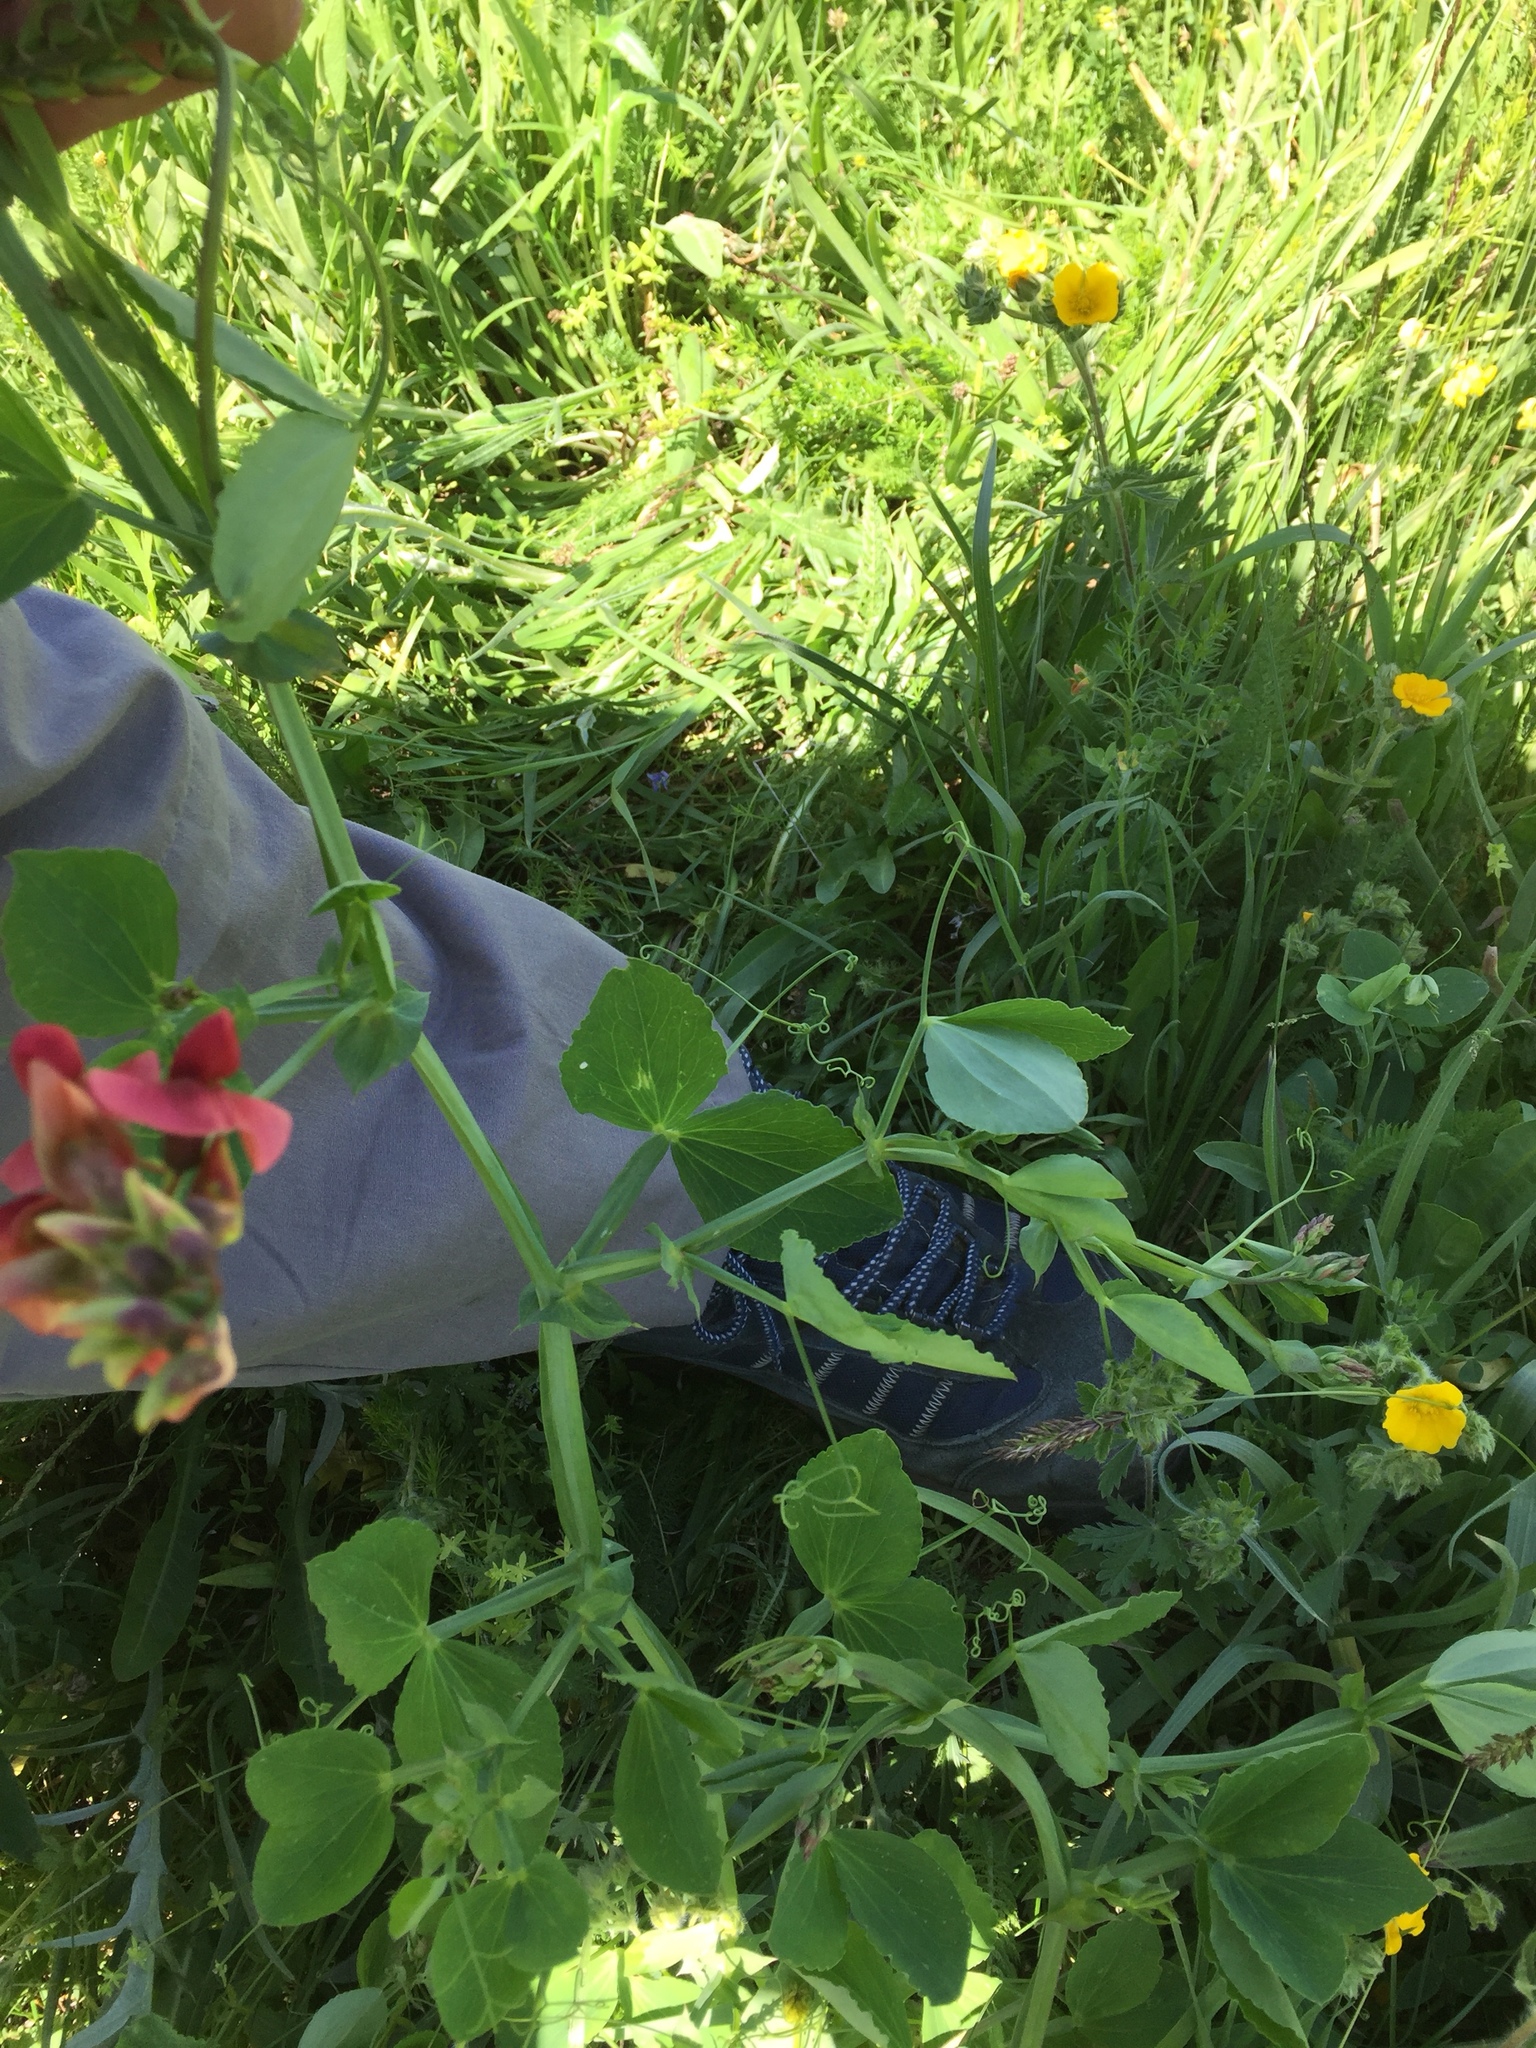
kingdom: Plantae
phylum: Tracheophyta
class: Magnoliopsida
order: Fabales
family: Fabaceae
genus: Lathyrus
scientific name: Lathyrus miniatus
